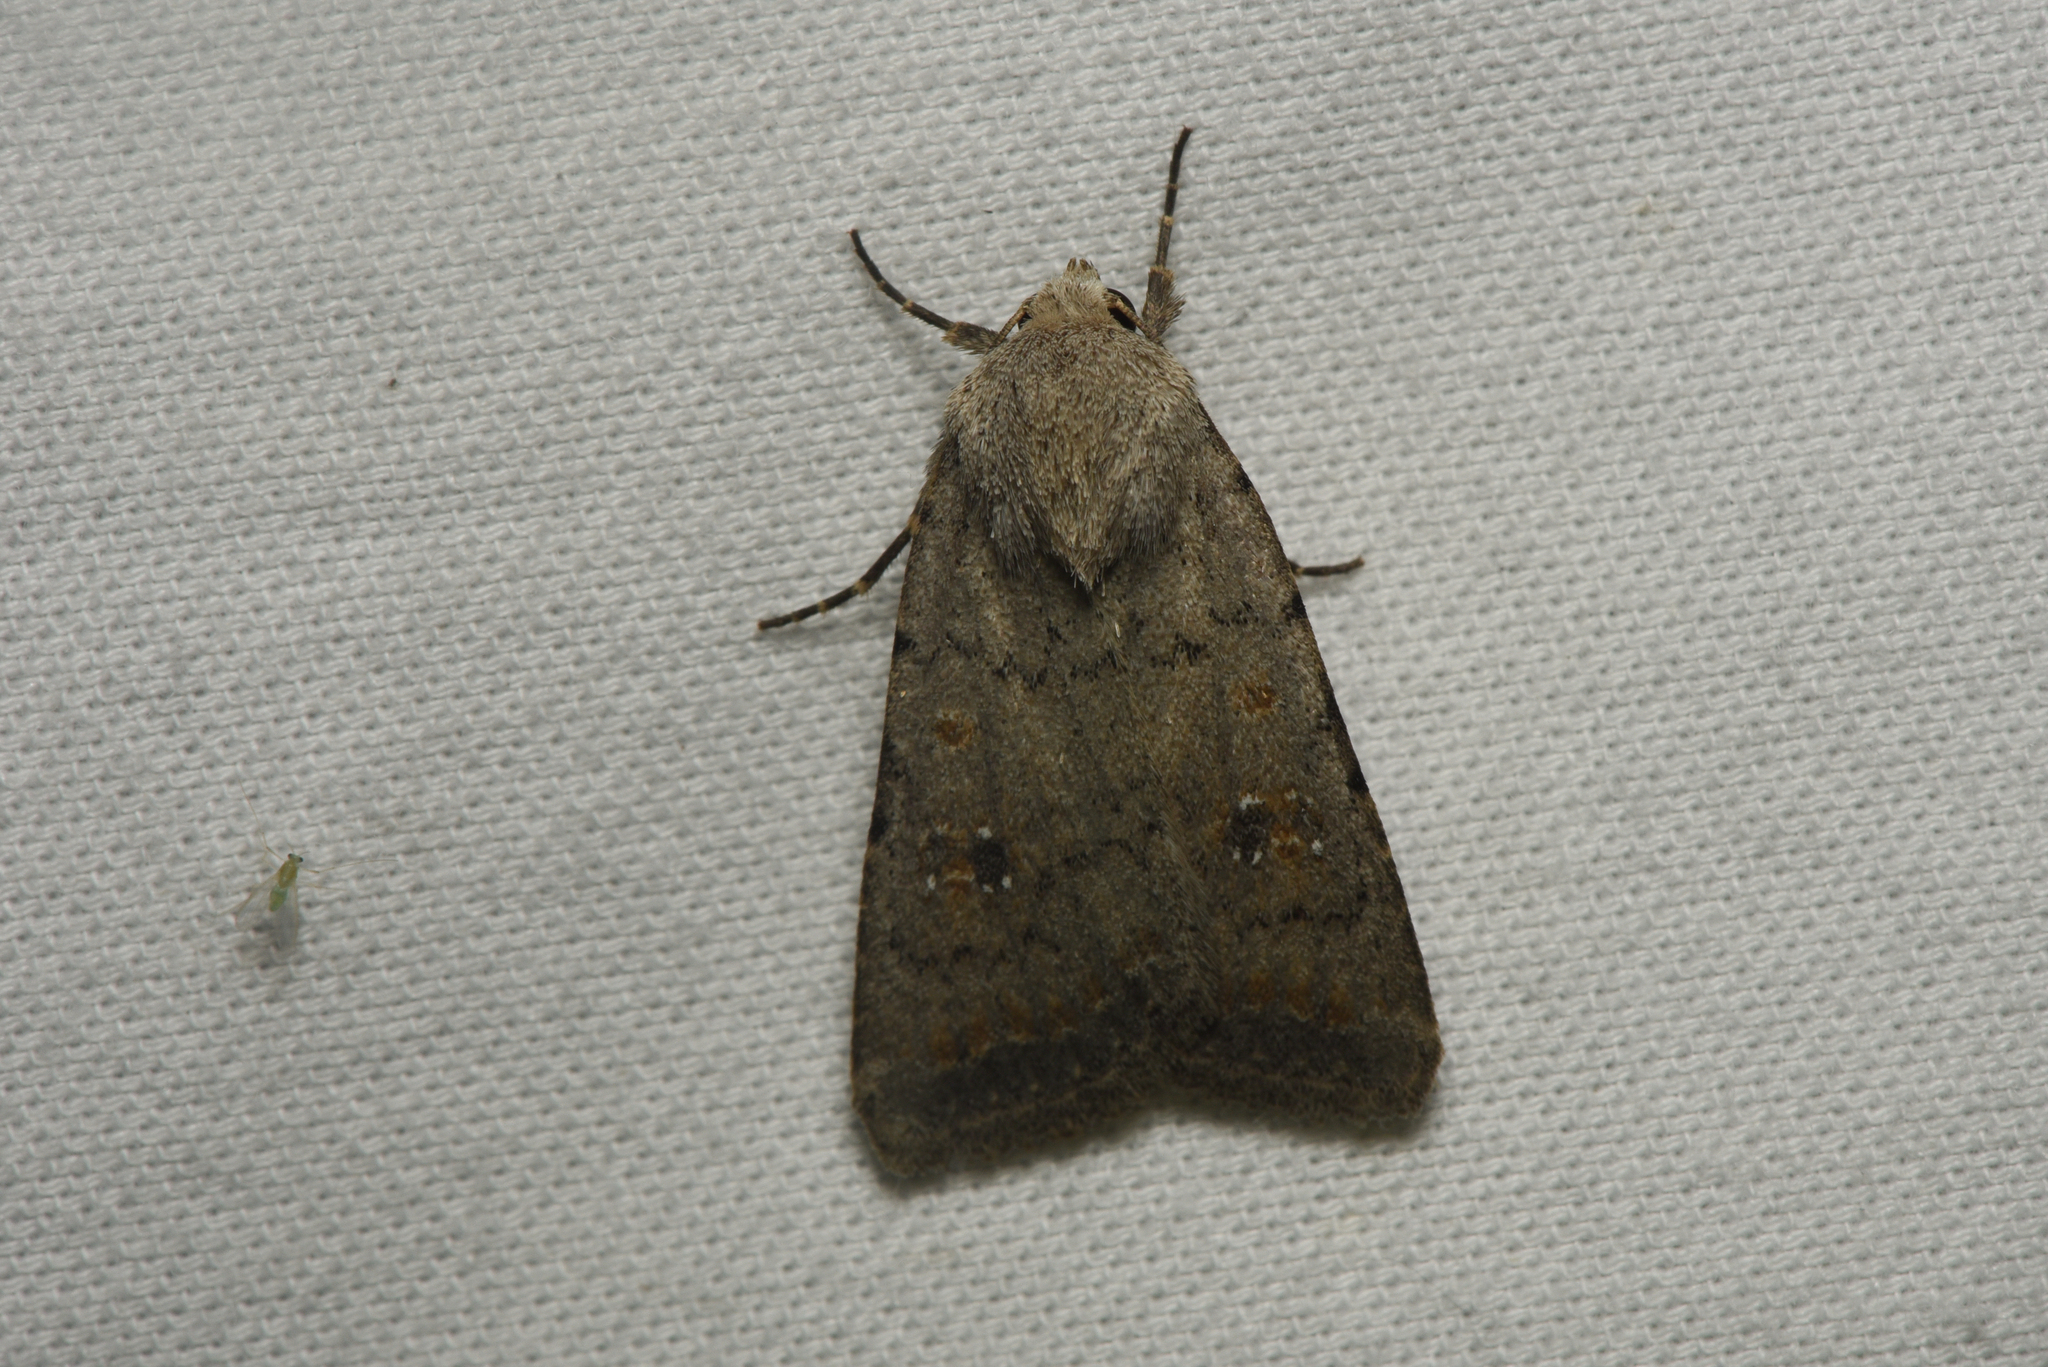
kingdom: Animalia
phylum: Arthropoda
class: Insecta
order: Lepidoptera
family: Noctuidae
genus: Caradrina
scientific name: Caradrina montana
